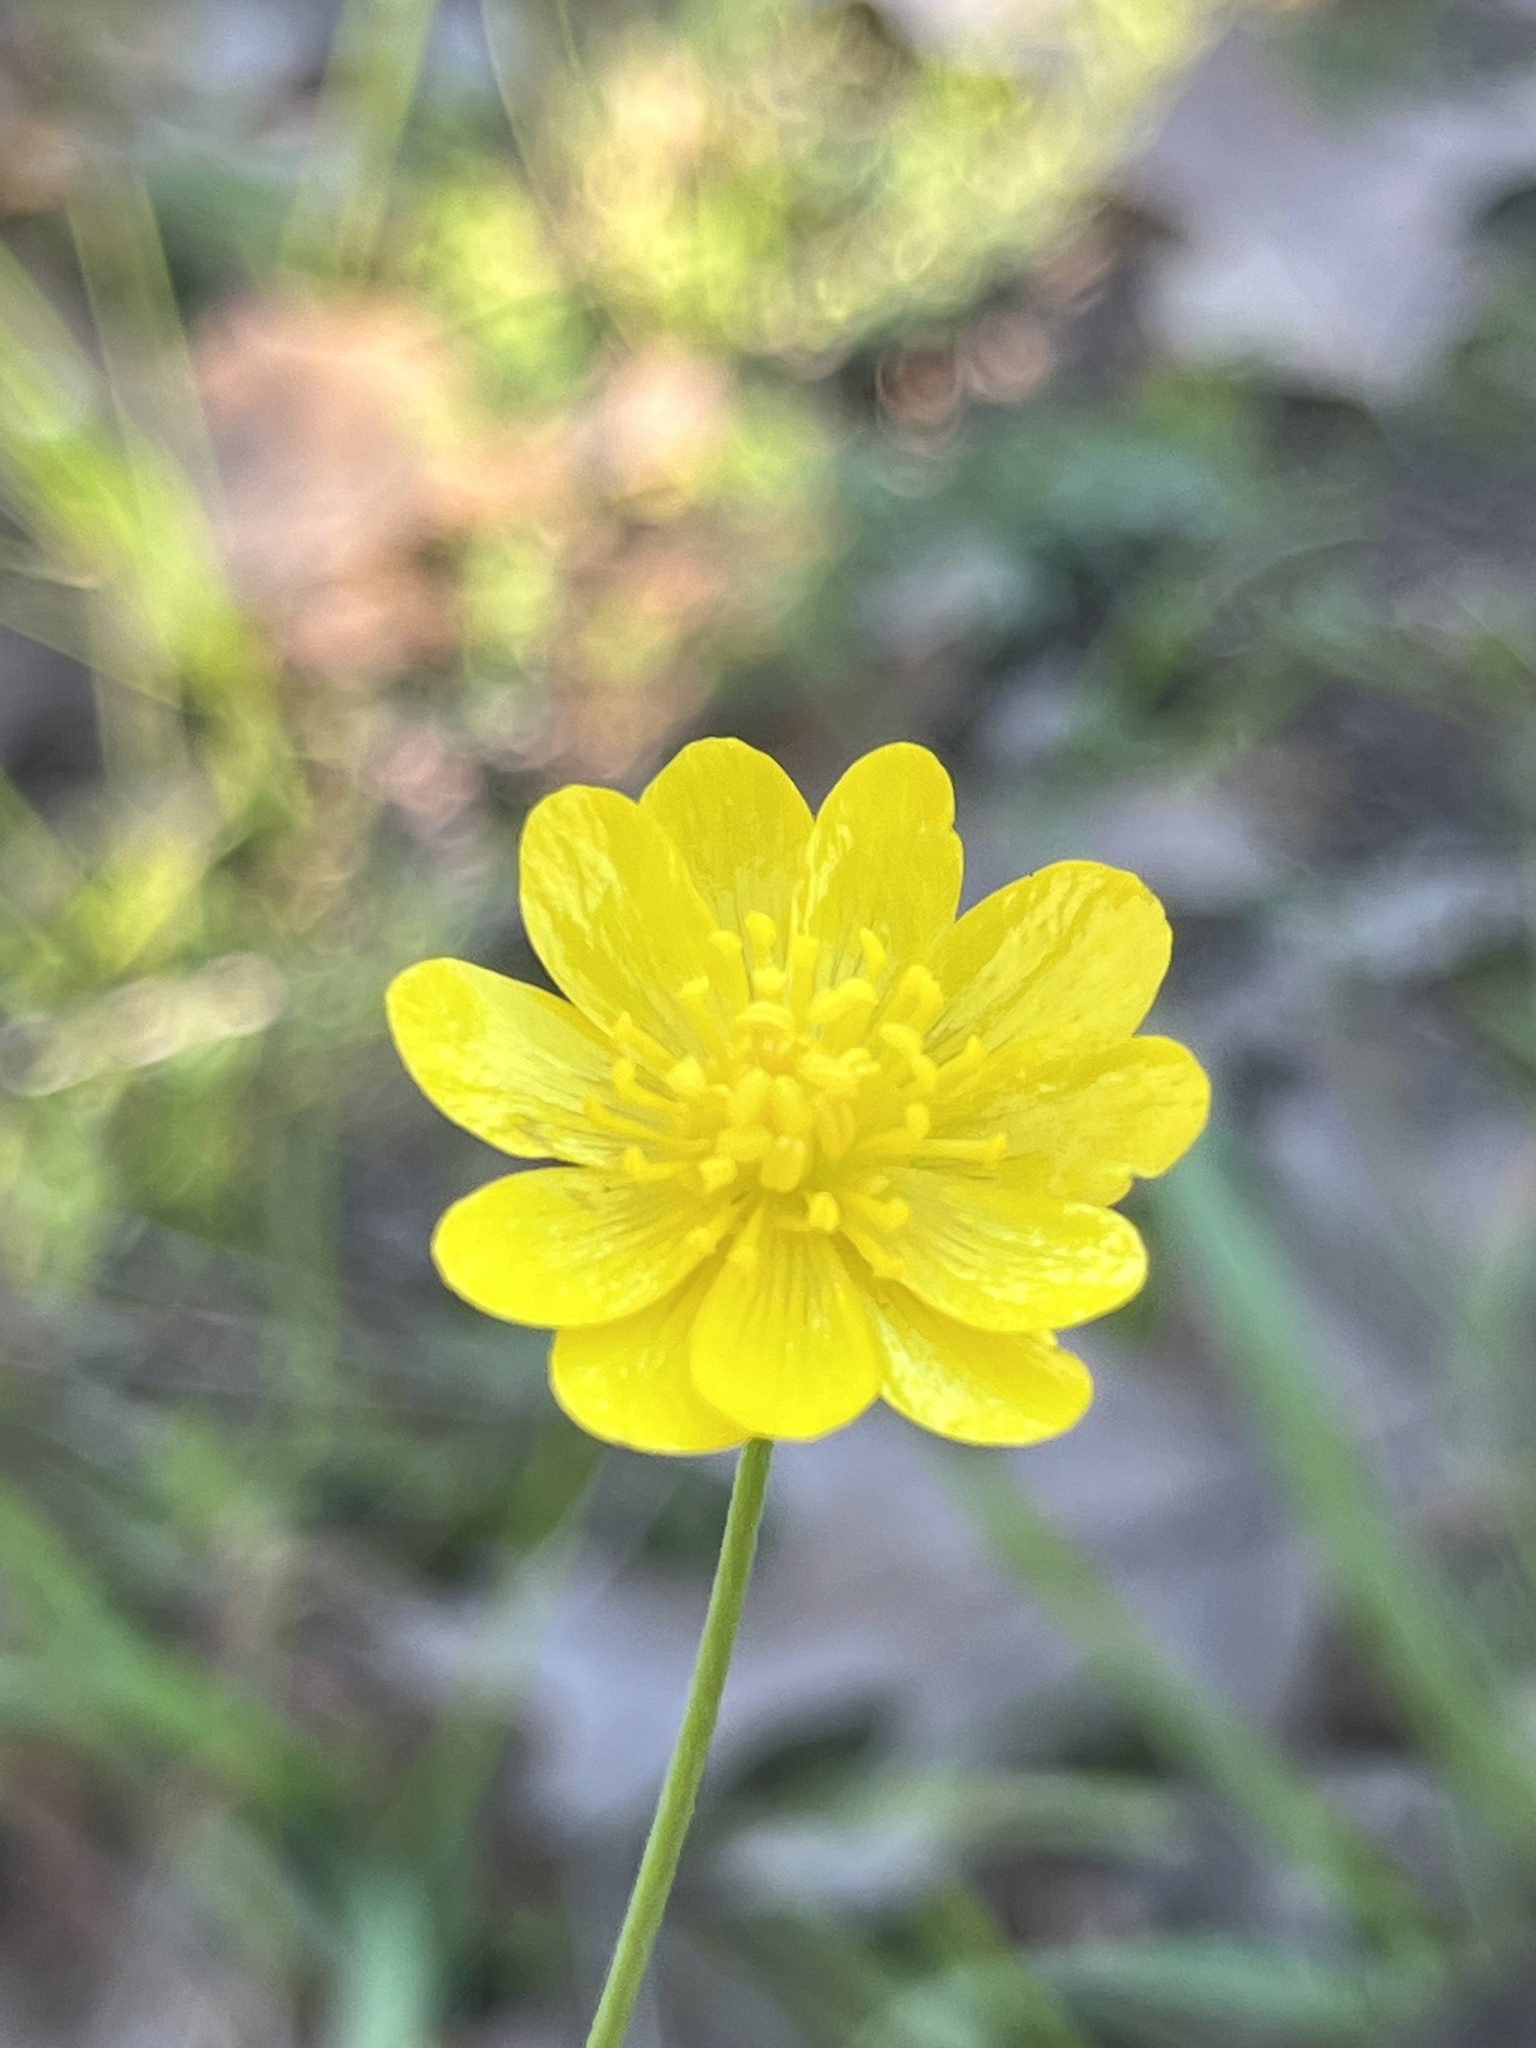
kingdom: Plantae
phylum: Tracheophyta
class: Magnoliopsida
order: Ranunculales
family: Ranunculaceae
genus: Ranunculus
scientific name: Ranunculus californicus
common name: California buttercup
